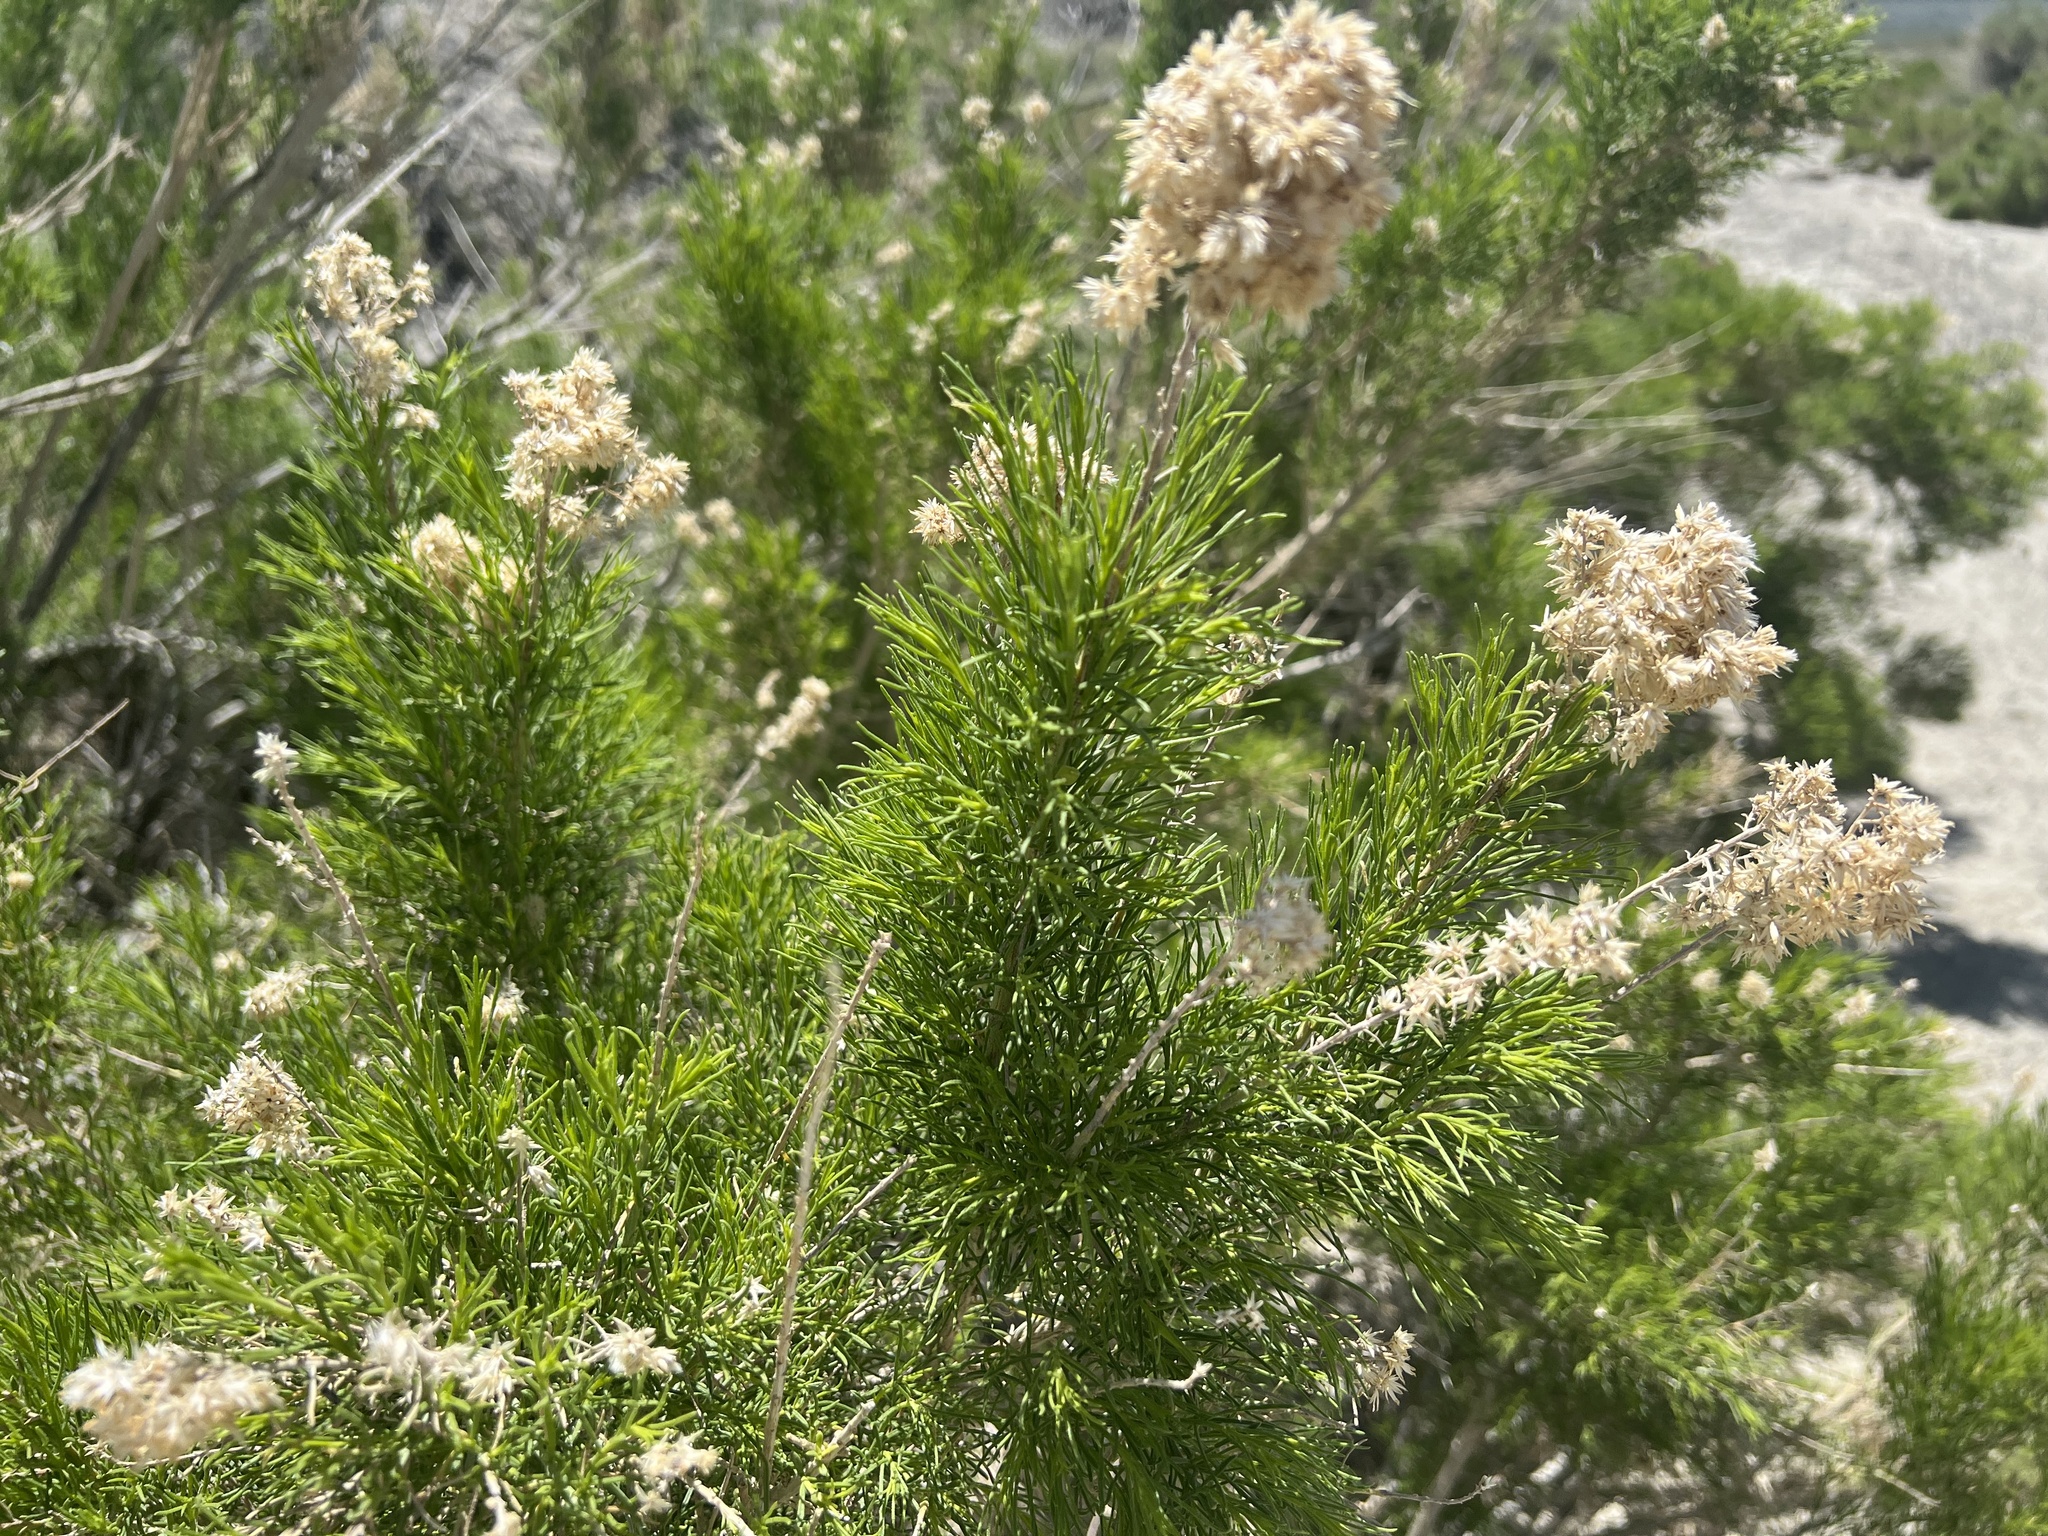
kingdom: Plantae
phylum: Tracheophyta
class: Magnoliopsida
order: Asterales
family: Asteraceae
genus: Ericameria
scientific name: Ericameria paniculata
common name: Punctate rabbitbrush
